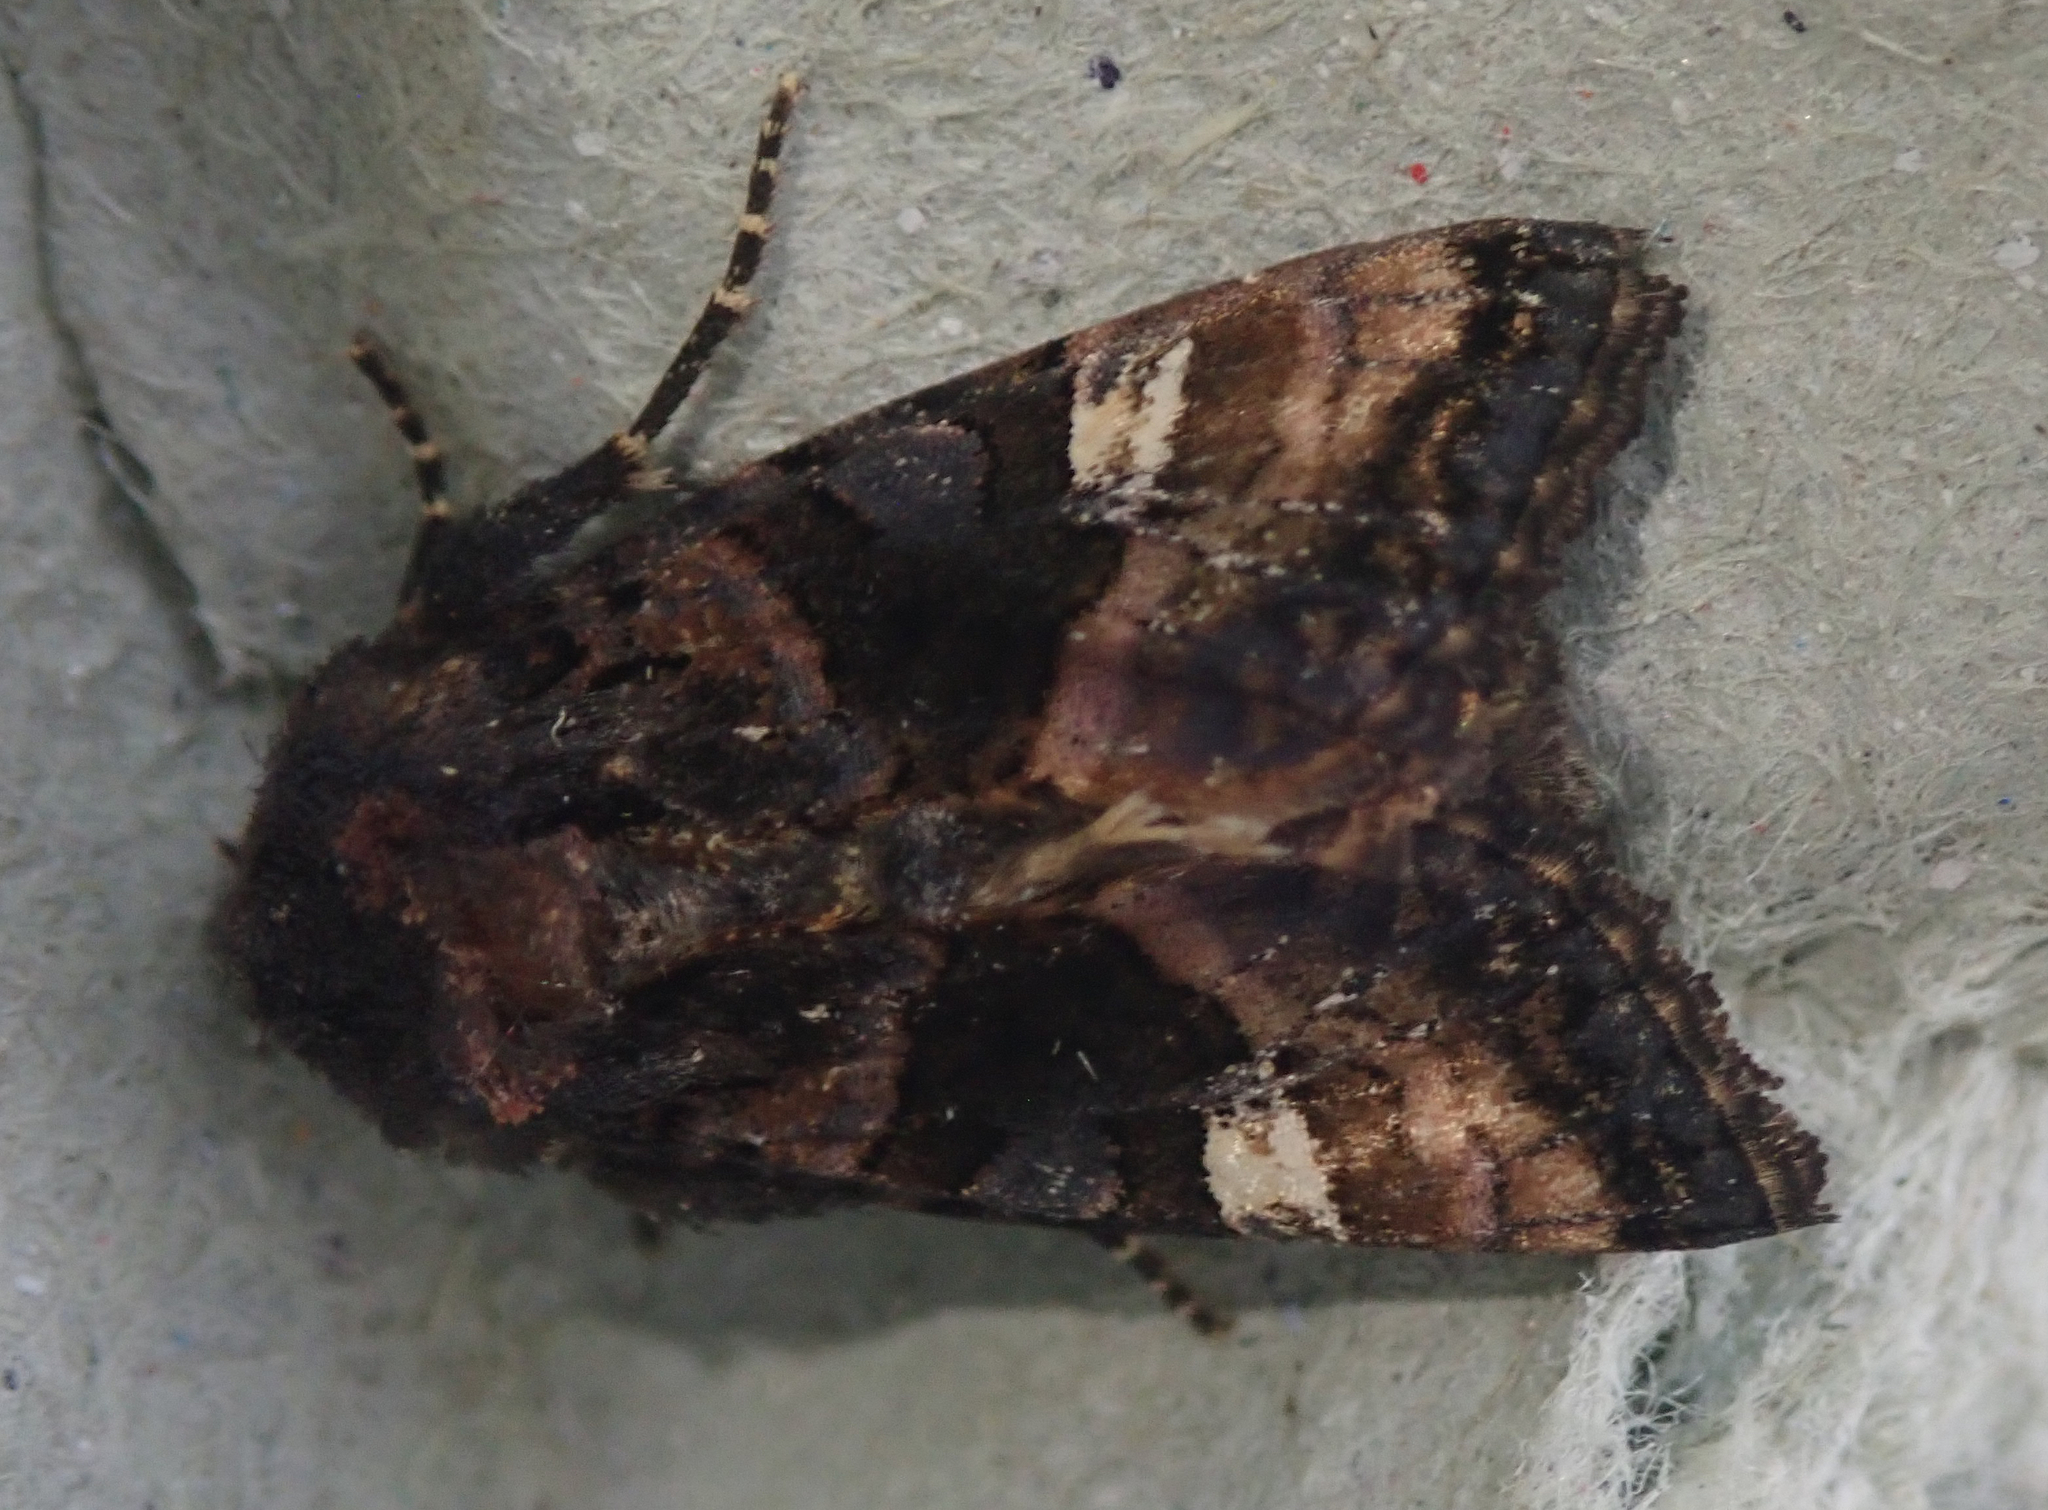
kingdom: Animalia
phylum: Arthropoda
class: Insecta
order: Lepidoptera
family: Noctuidae
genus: Euplexia
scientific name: Euplexia lucipara
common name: Small angle shades
